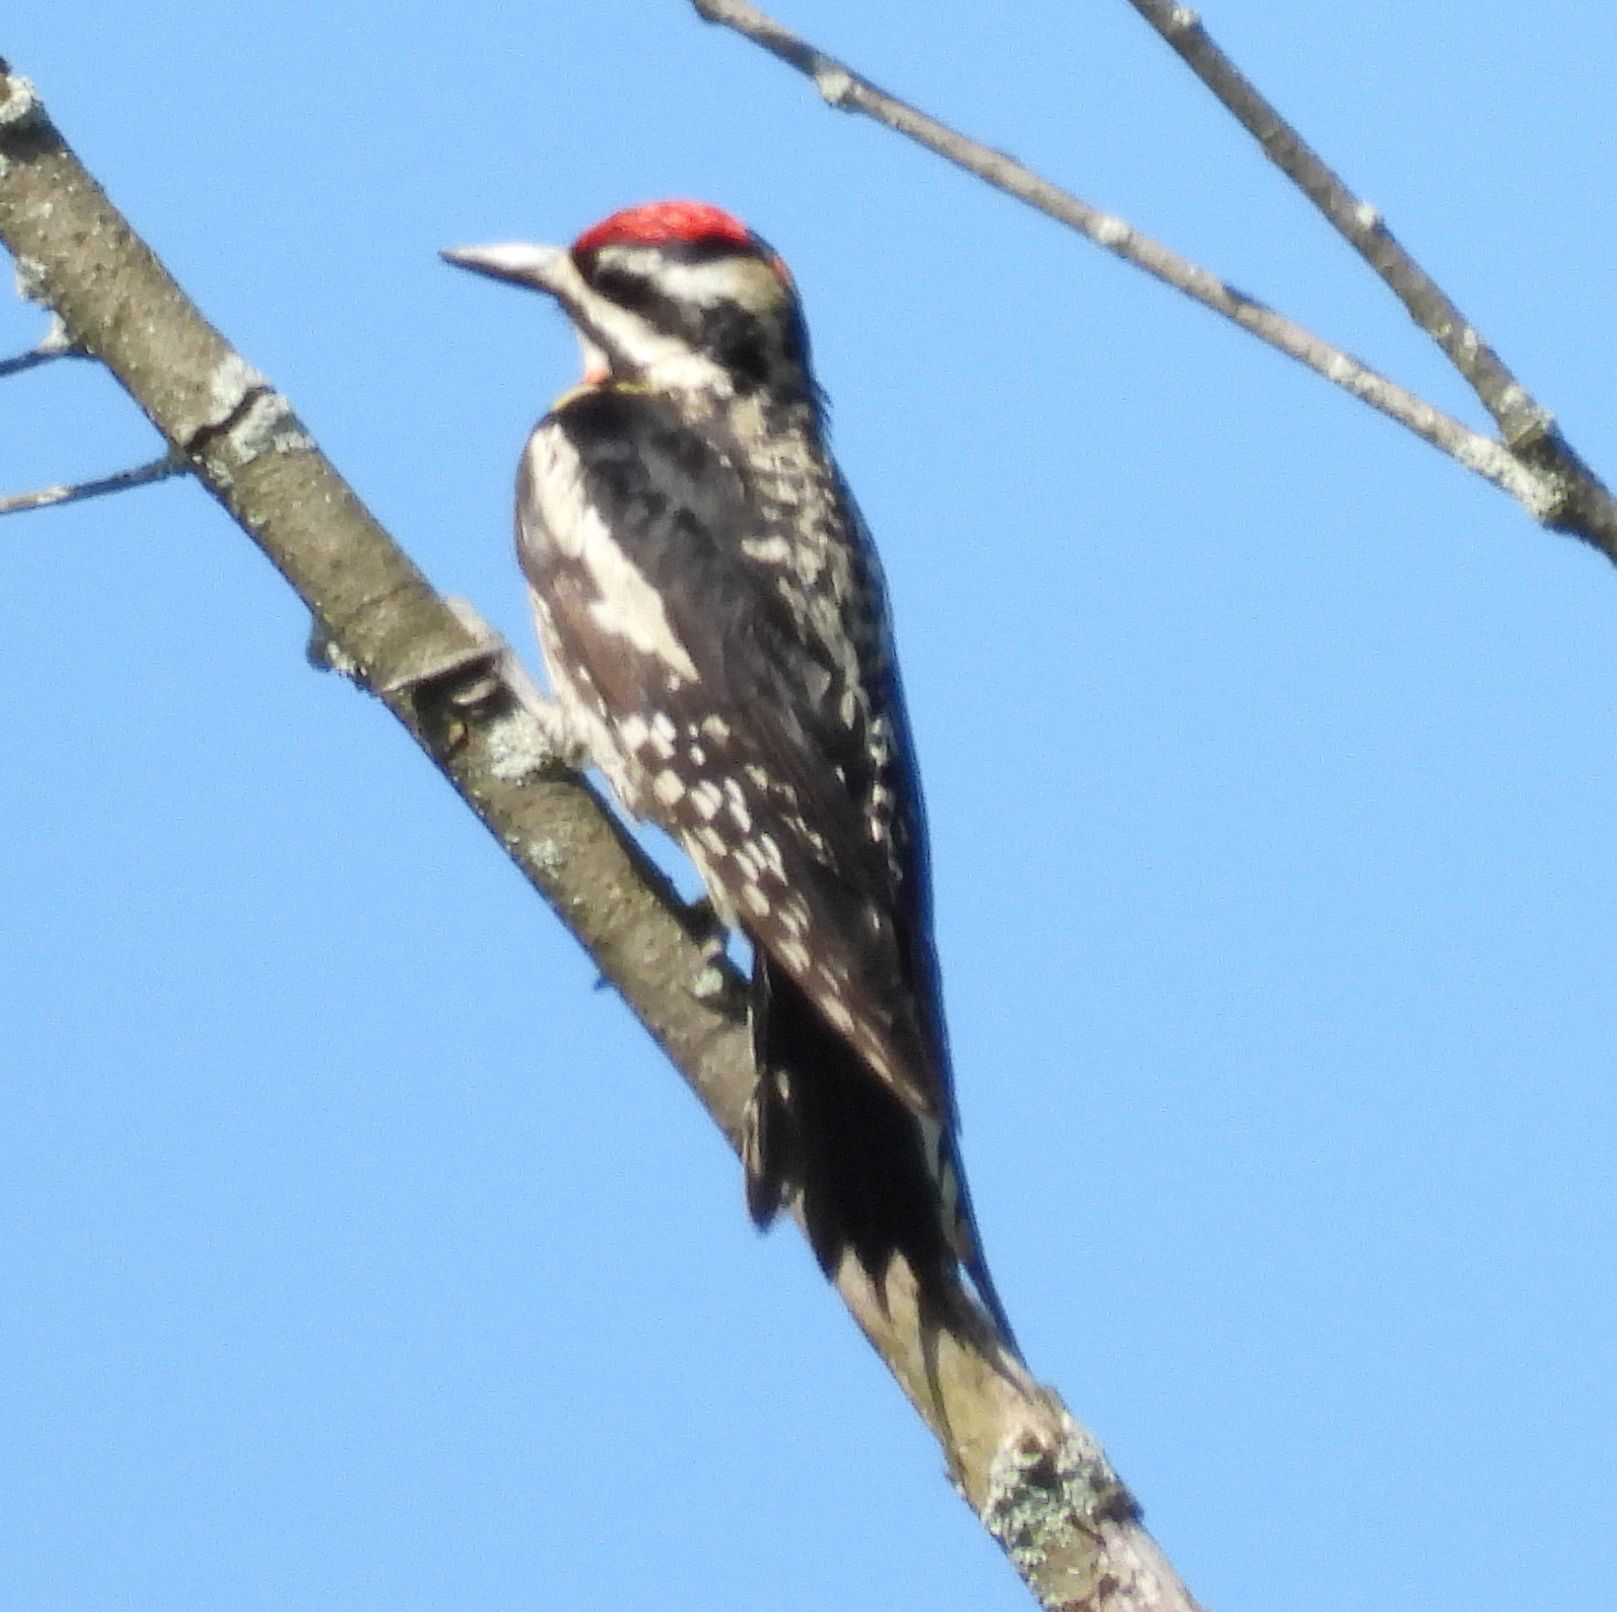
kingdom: Animalia
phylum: Chordata
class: Aves
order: Piciformes
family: Picidae
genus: Sphyrapicus
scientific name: Sphyrapicus varius
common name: Yellow-bellied sapsucker
